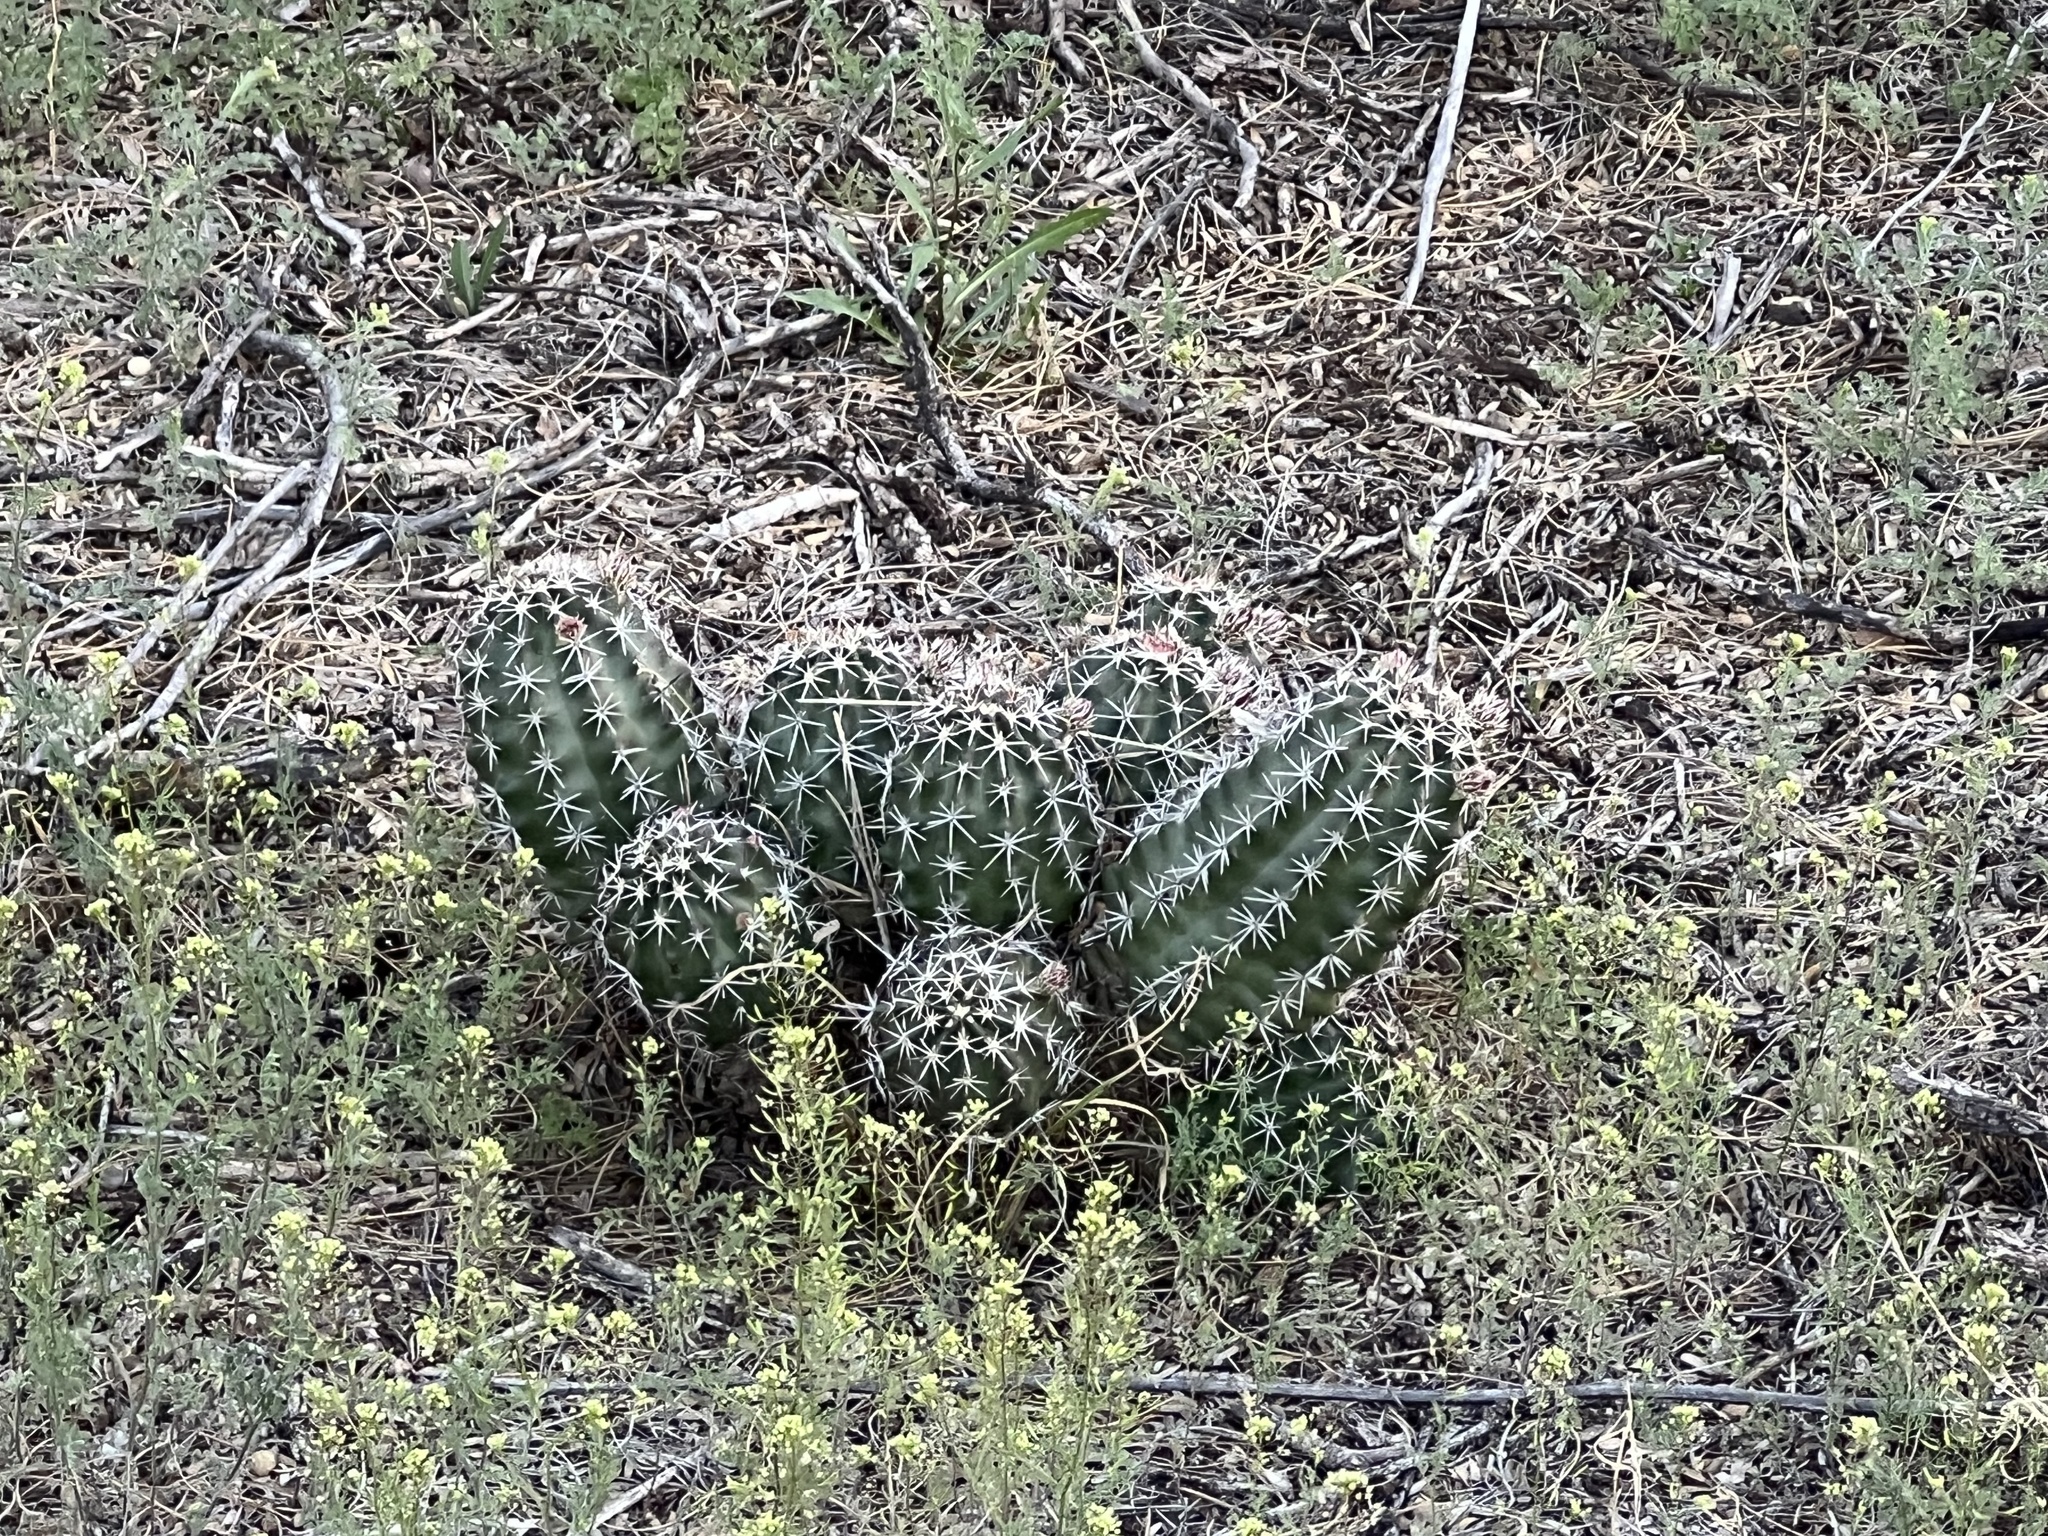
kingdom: Plantae
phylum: Tracheophyta
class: Magnoliopsida
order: Caryophyllales
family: Cactaceae
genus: Echinocereus
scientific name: Echinocereus fendleri
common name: Fendler's hedgehog cactus
